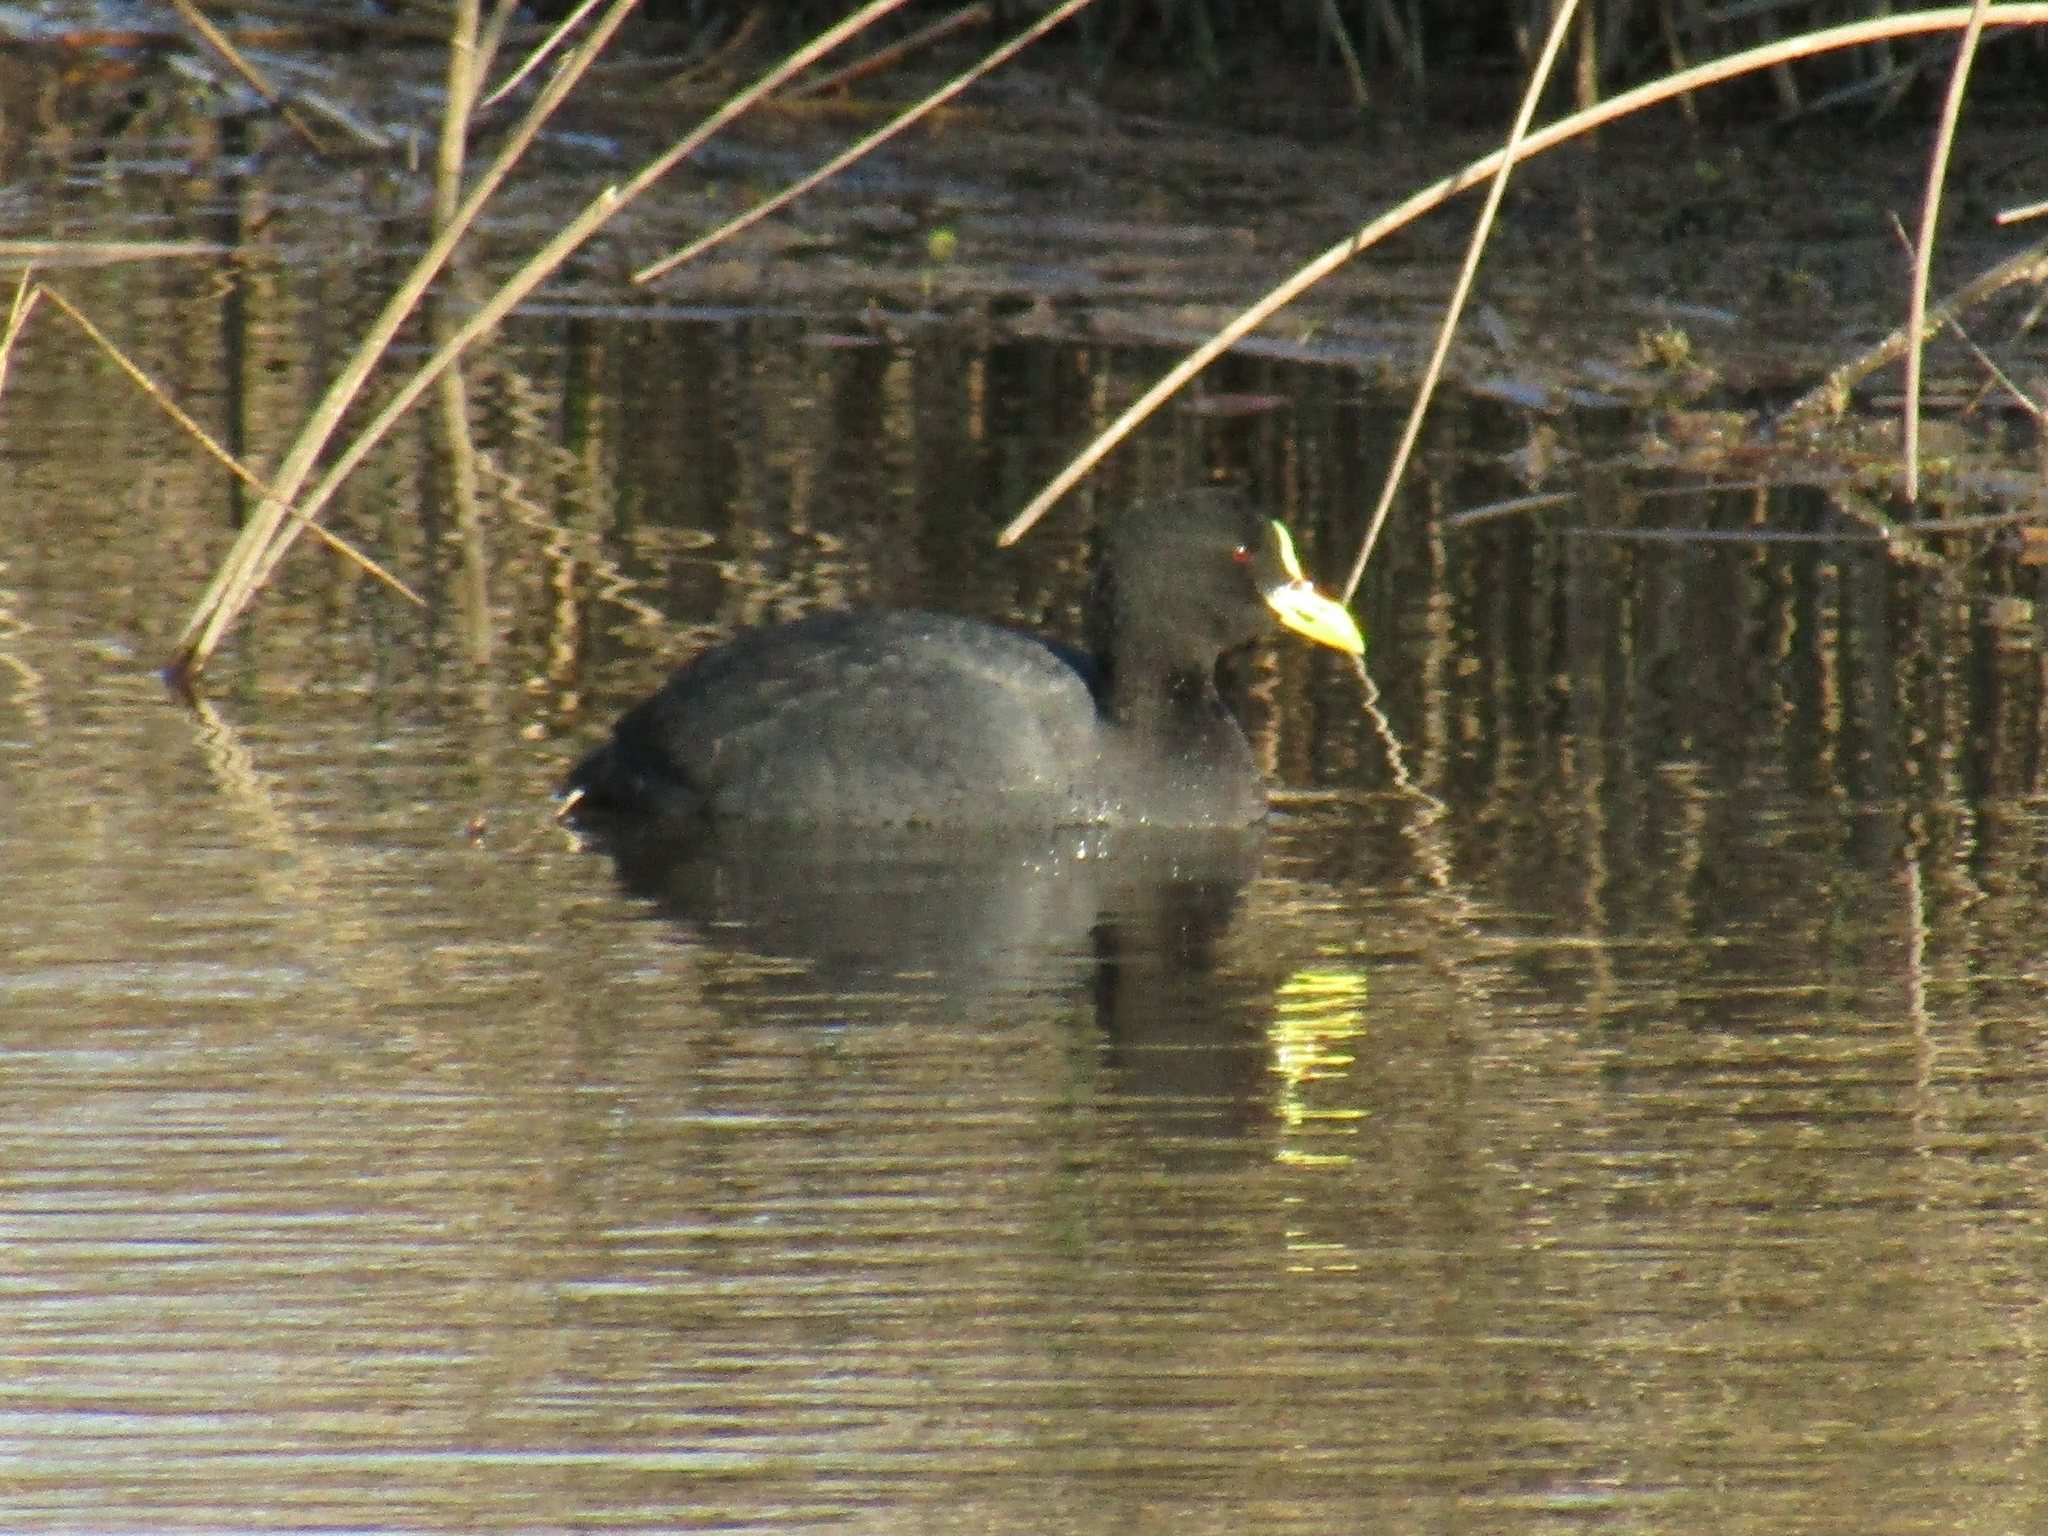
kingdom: Animalia
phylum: Chordata
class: Aves
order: Gruiformes
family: Rallidae
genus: Fulica
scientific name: Fulica armillata
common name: Red-gartered coot
